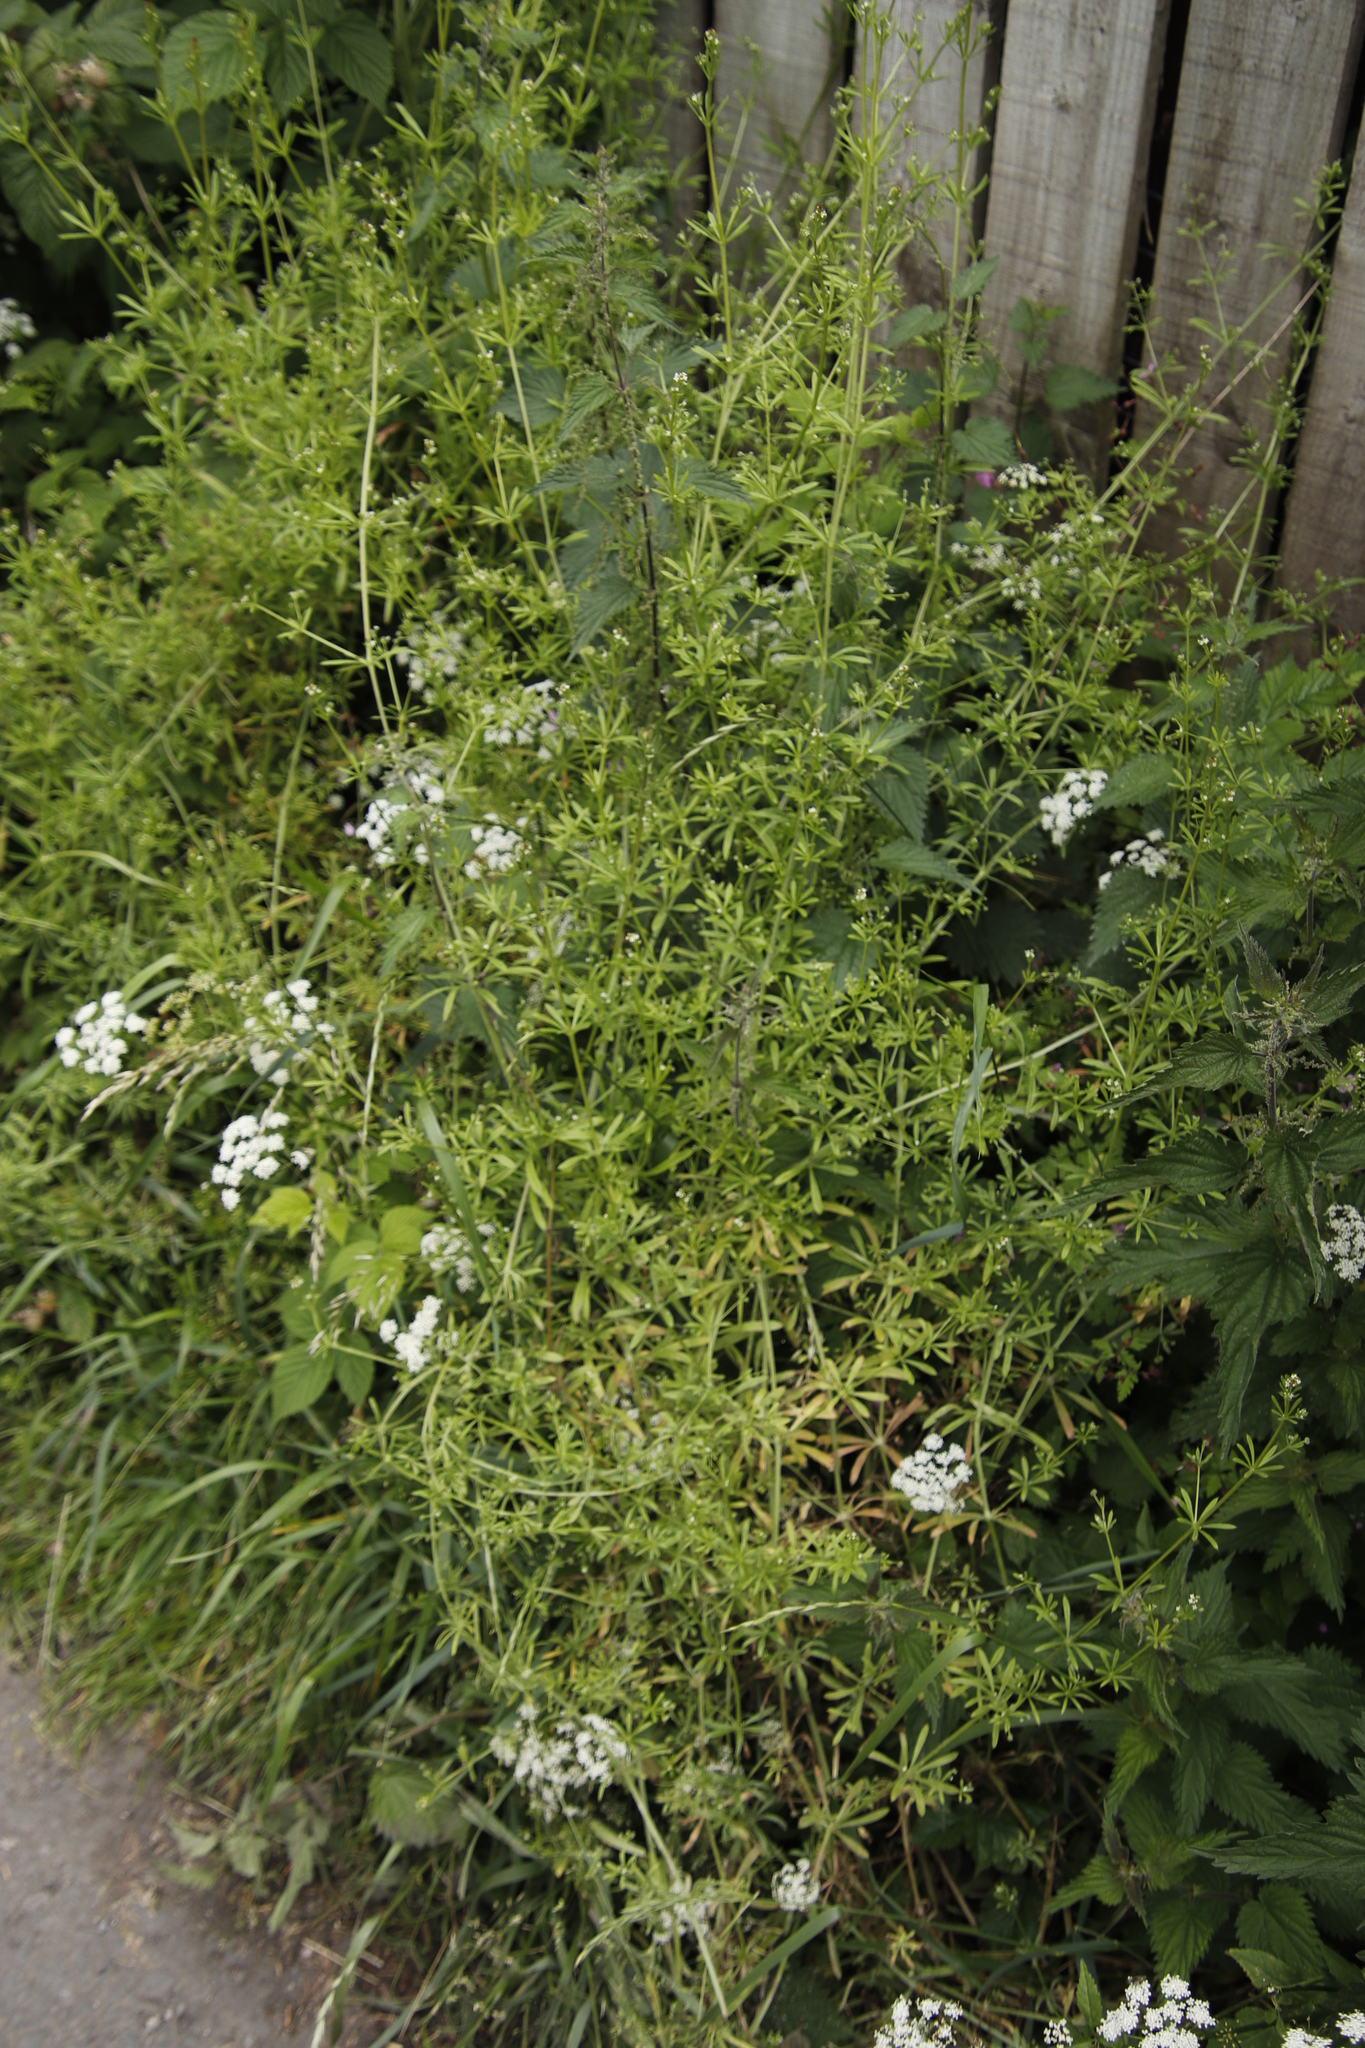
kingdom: Plantae
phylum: Tracheophyta
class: Magnoliopsida
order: Gentianales
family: Rubiaceae
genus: Galium
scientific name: Galium aparine
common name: Cleavers
